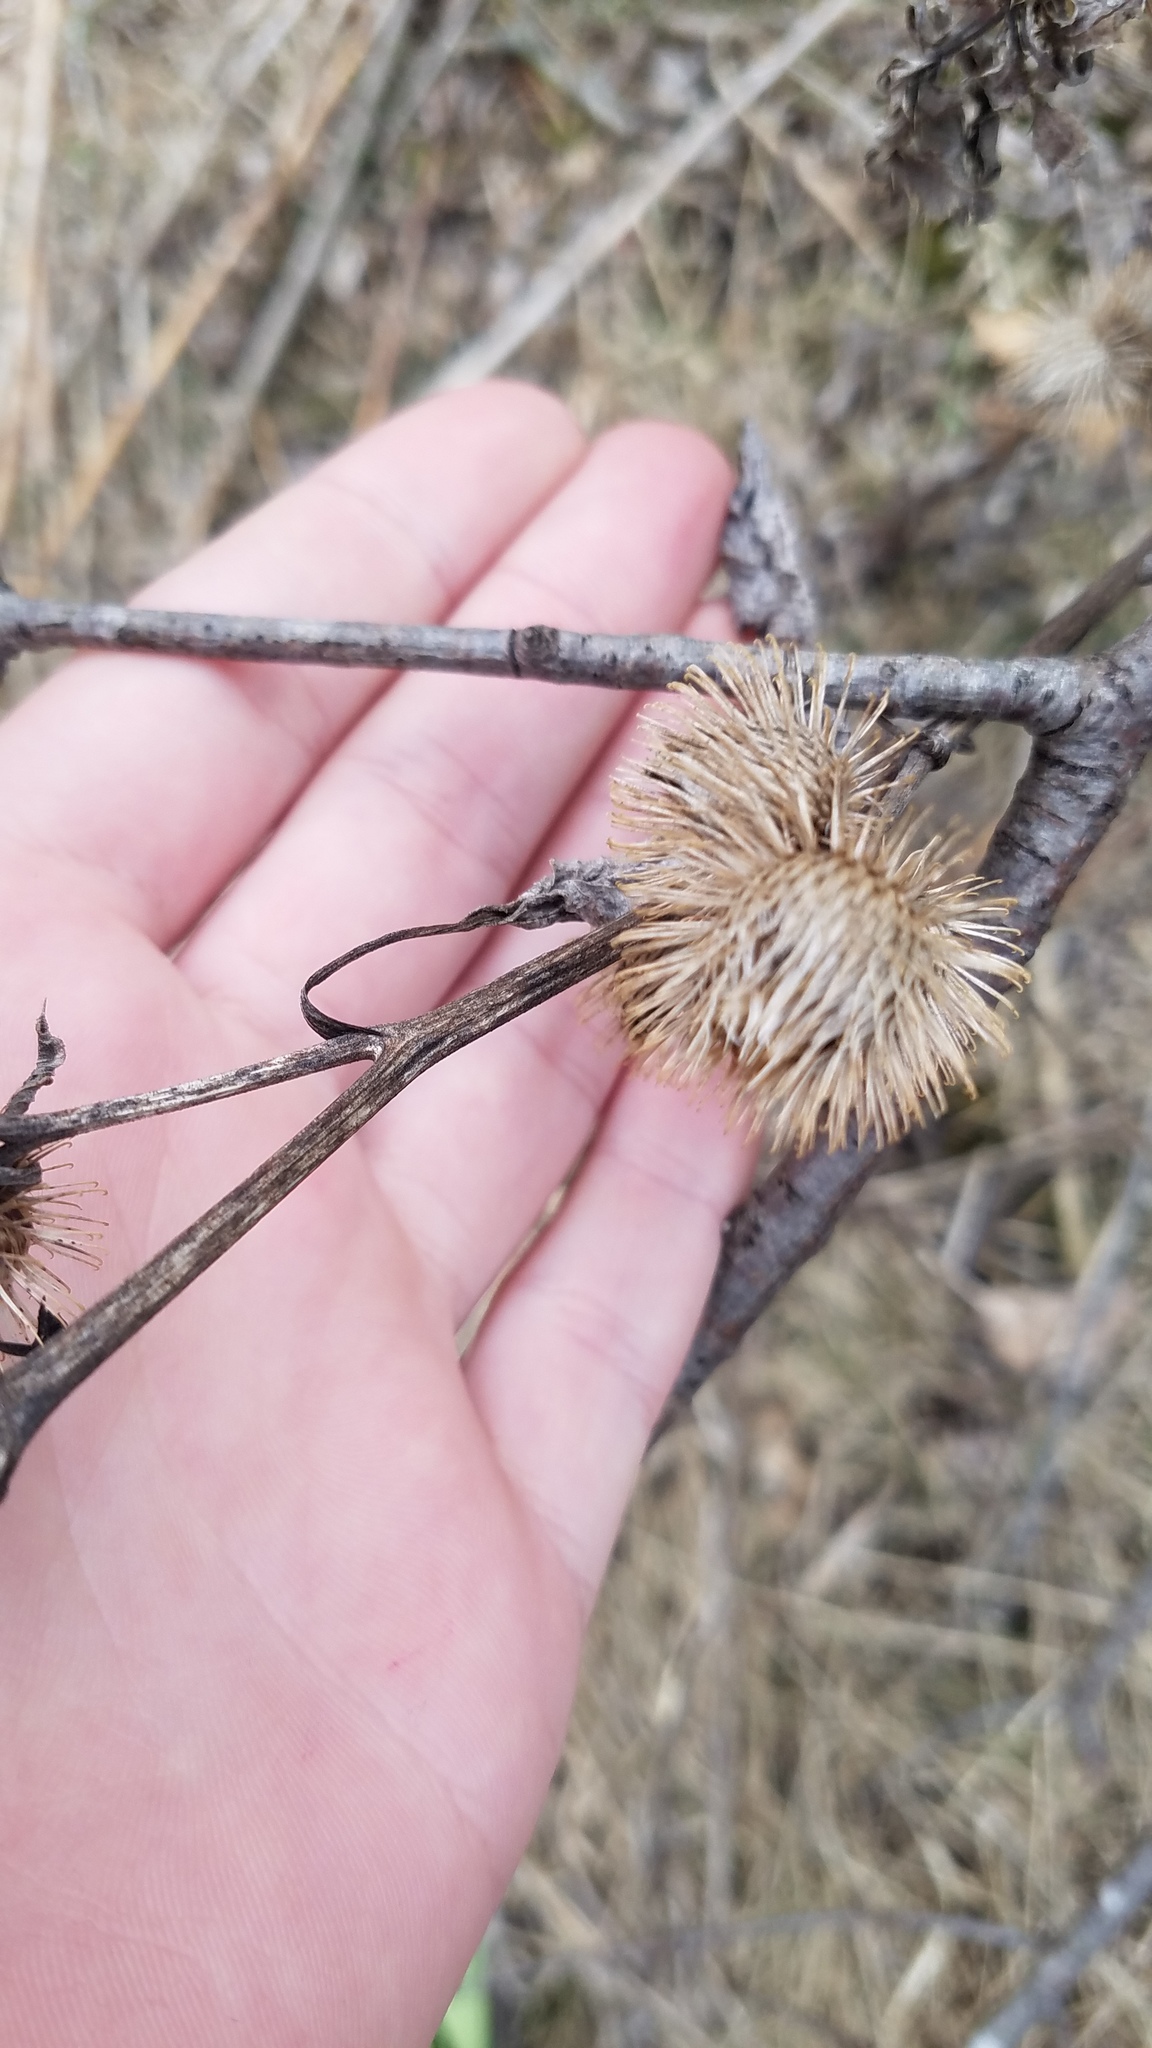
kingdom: Plantae
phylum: Tracheophyta
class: Magnoliopsida
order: Asterales
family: Asteraceae
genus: Arctium
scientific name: Arctium minus
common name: Lesser burdock
